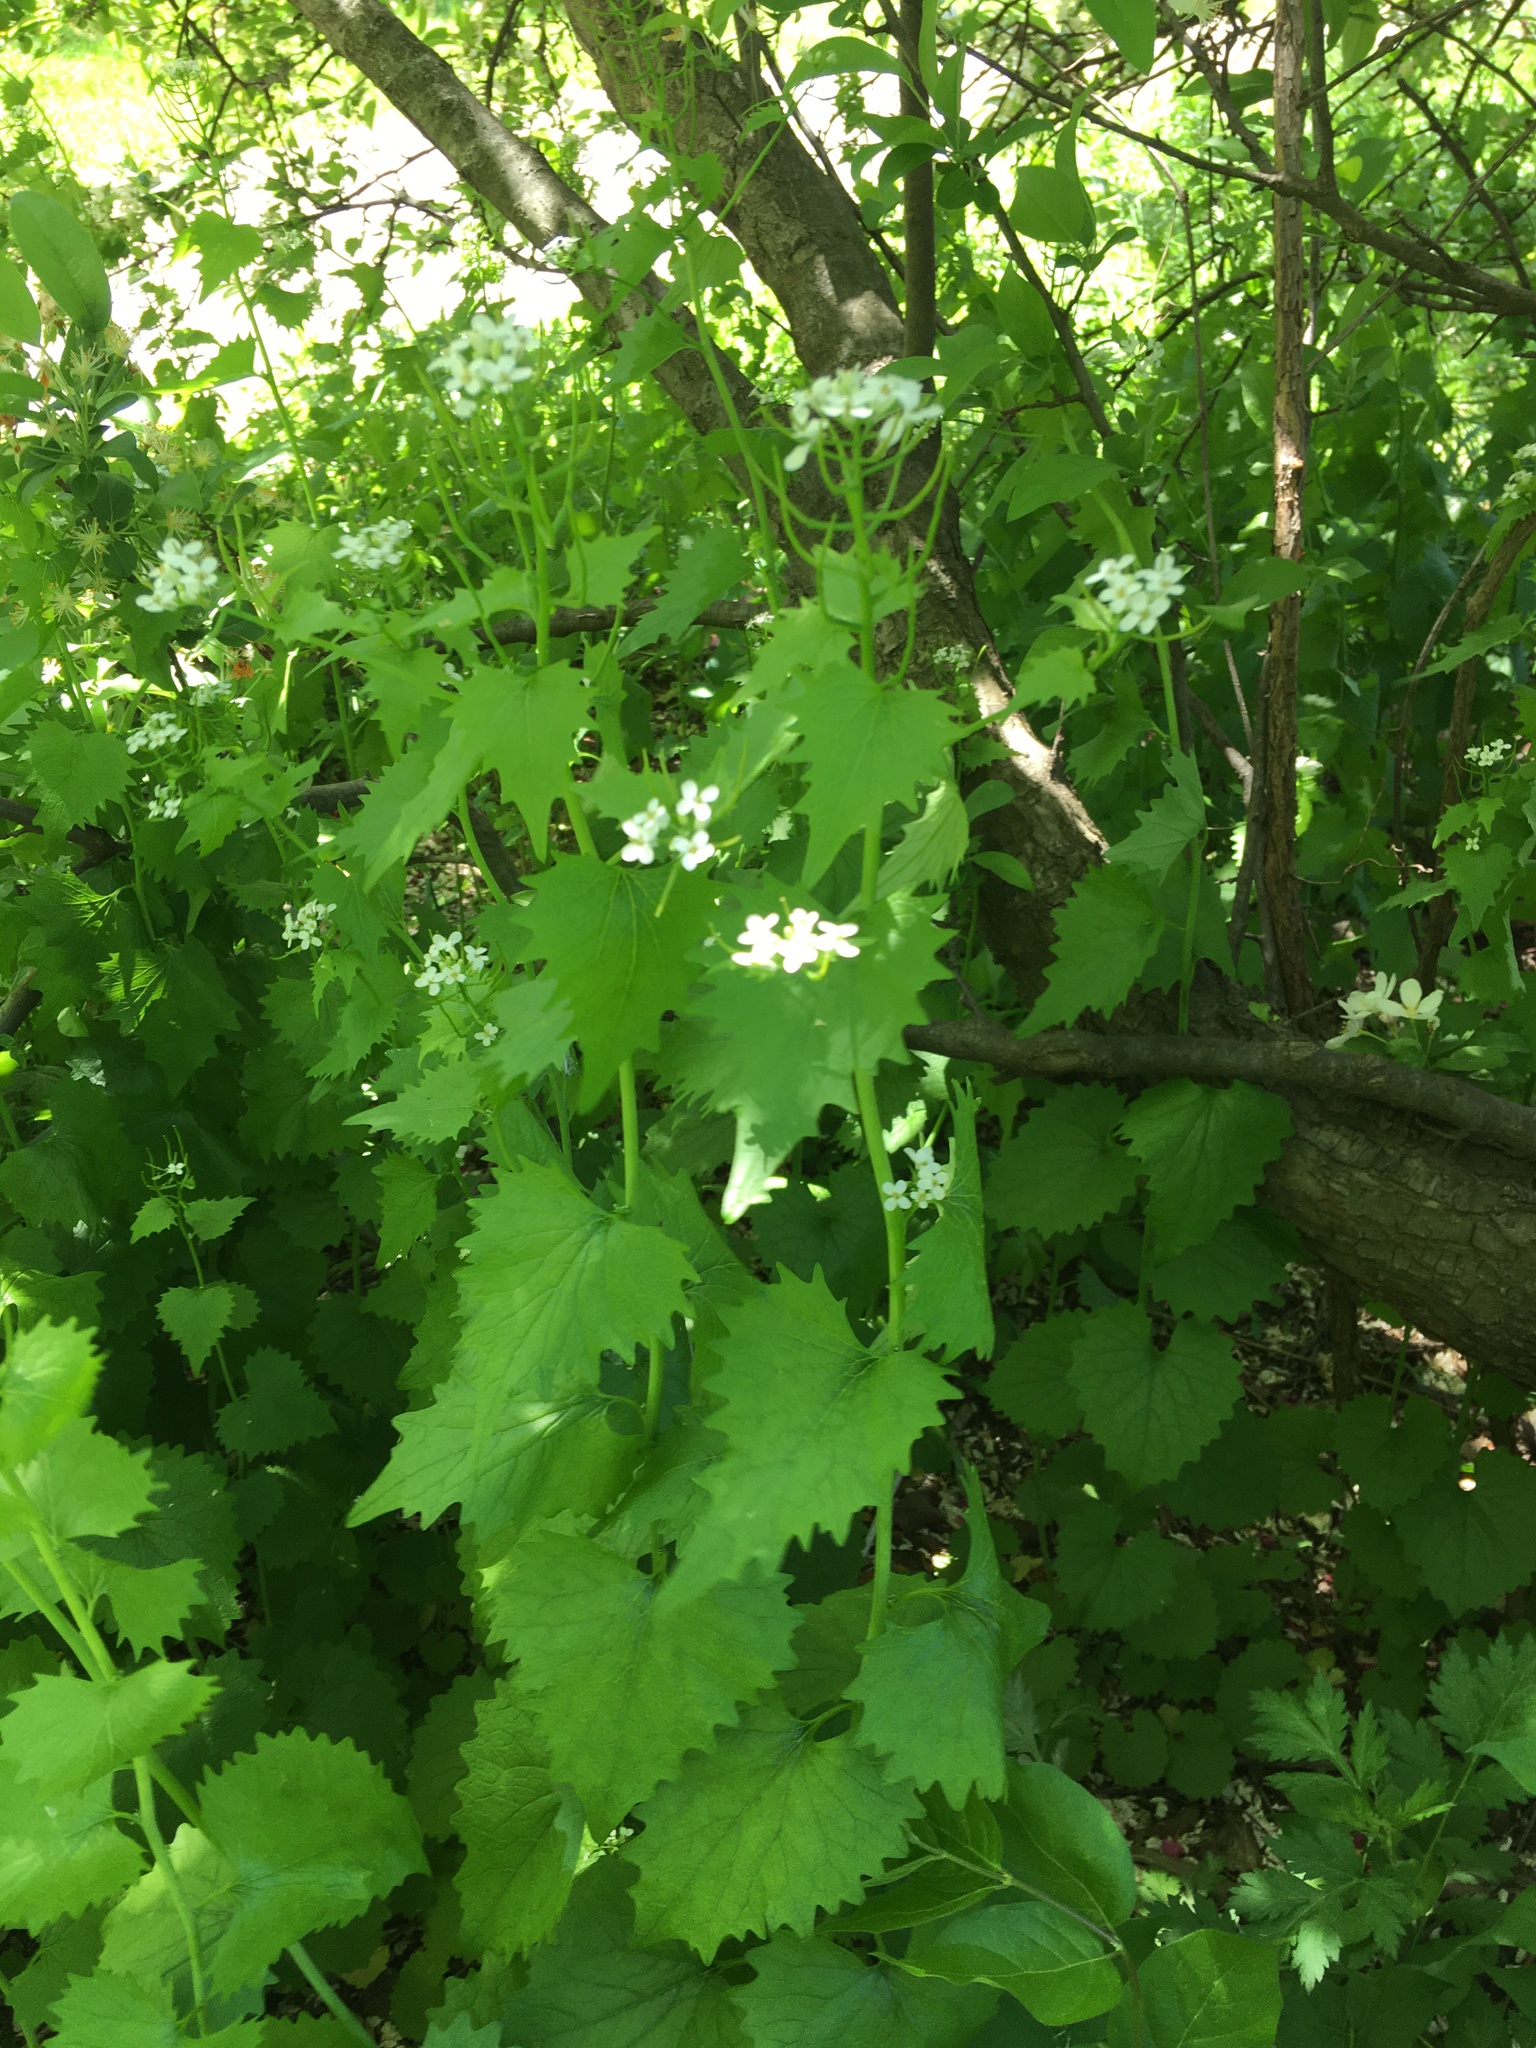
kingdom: Plantae
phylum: Tracheophyta
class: Magnoliopsida
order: Brassicales
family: Brassicaceae
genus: Alliaria
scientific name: Alliaria petiolata
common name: Garlic mustard
